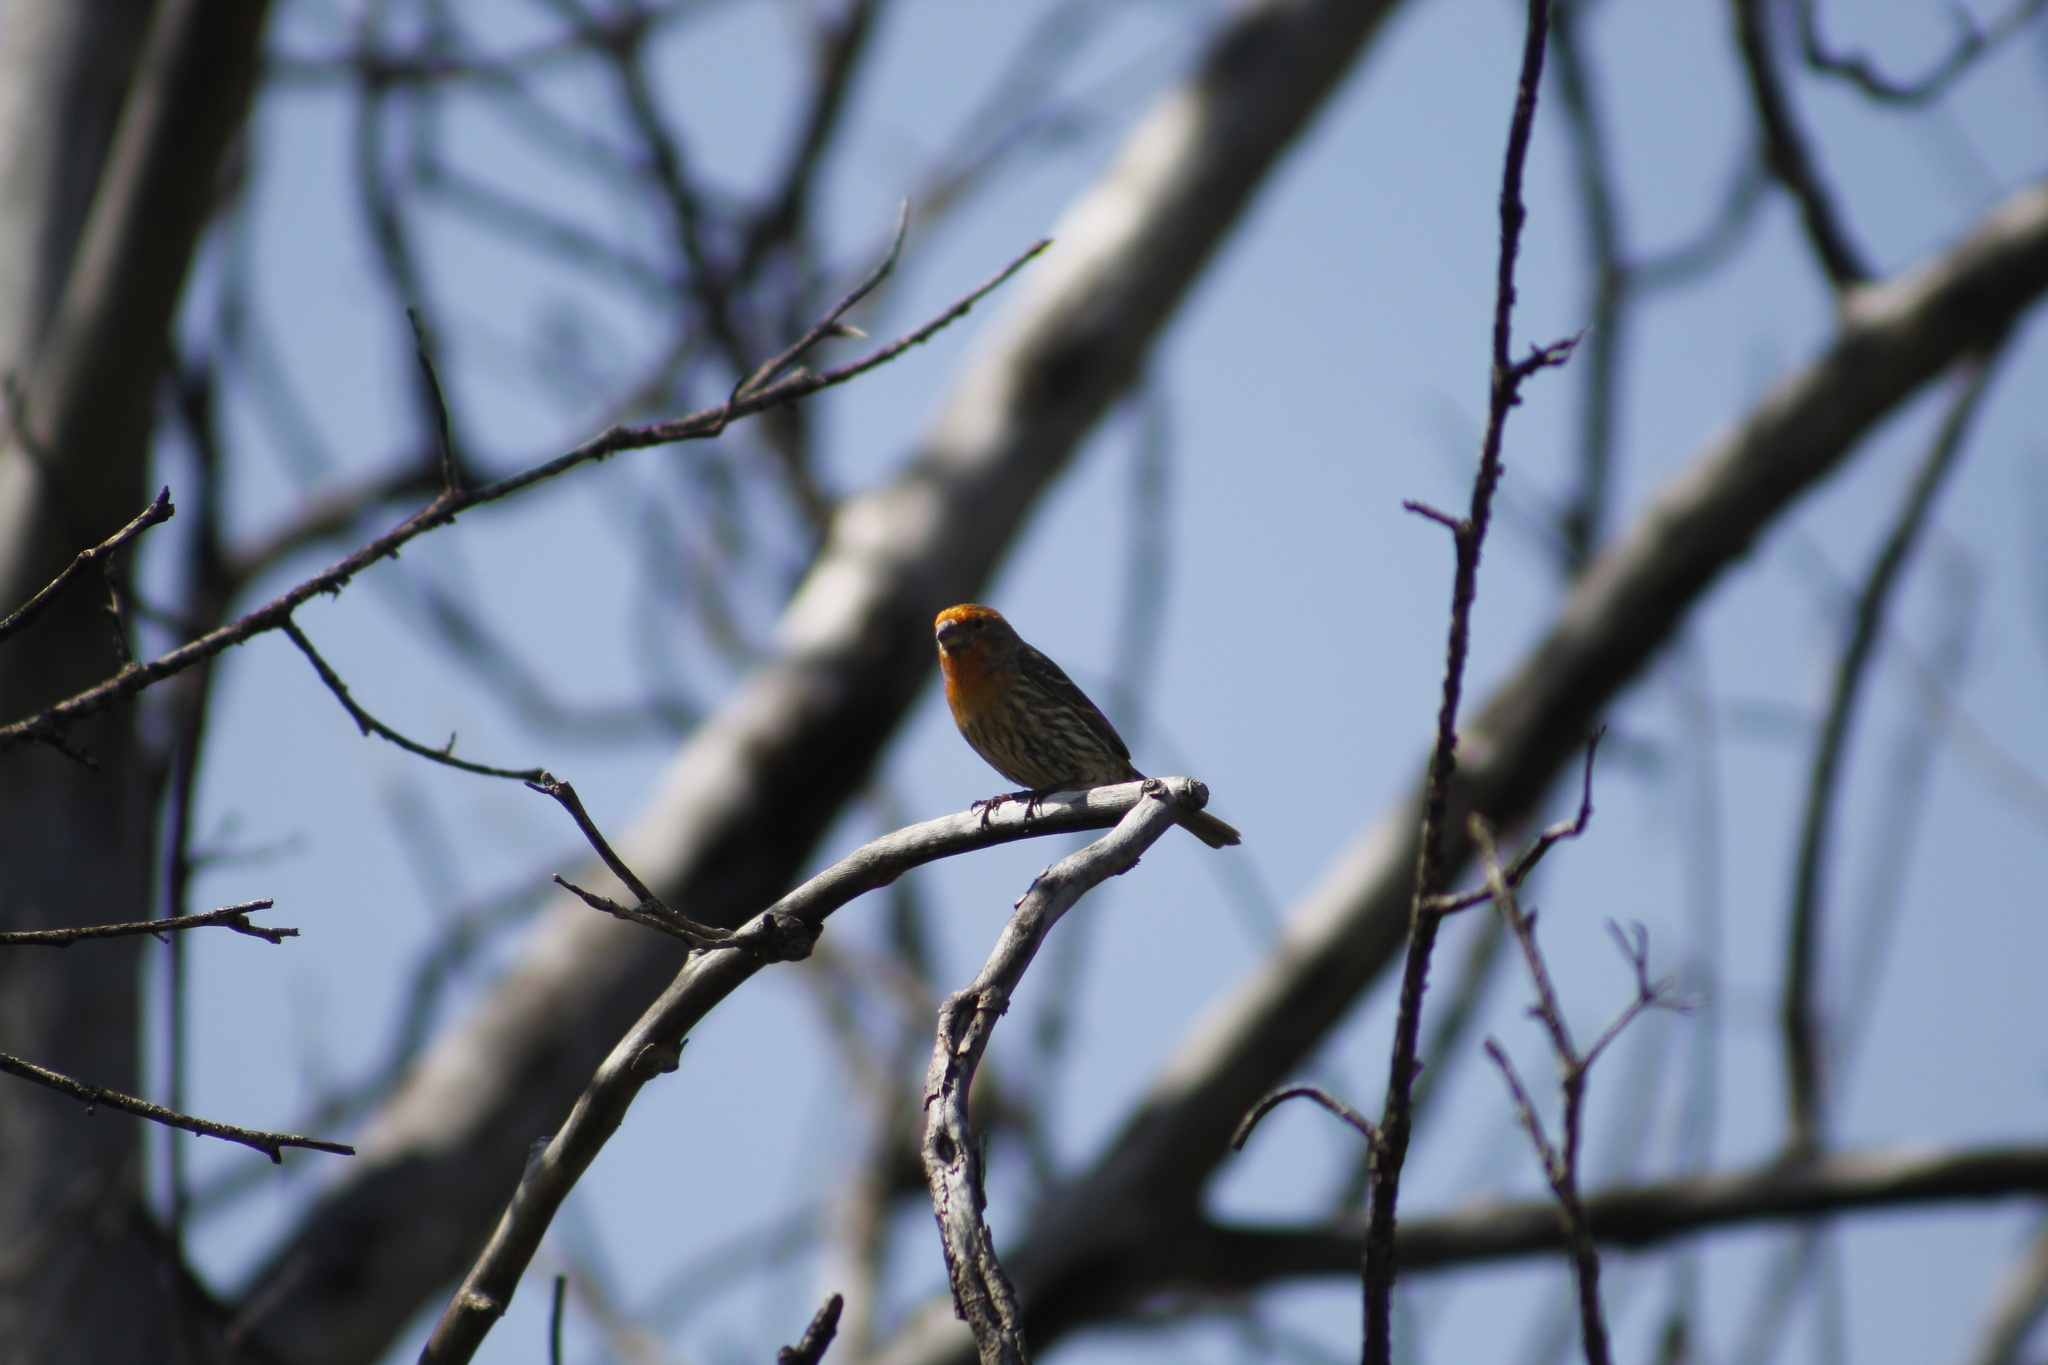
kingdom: Animalia
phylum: Chordata
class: Aves
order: Passeriformes
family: Fringillidae
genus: Haemorhous
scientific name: Haemorhous mexicanus
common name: House finch
